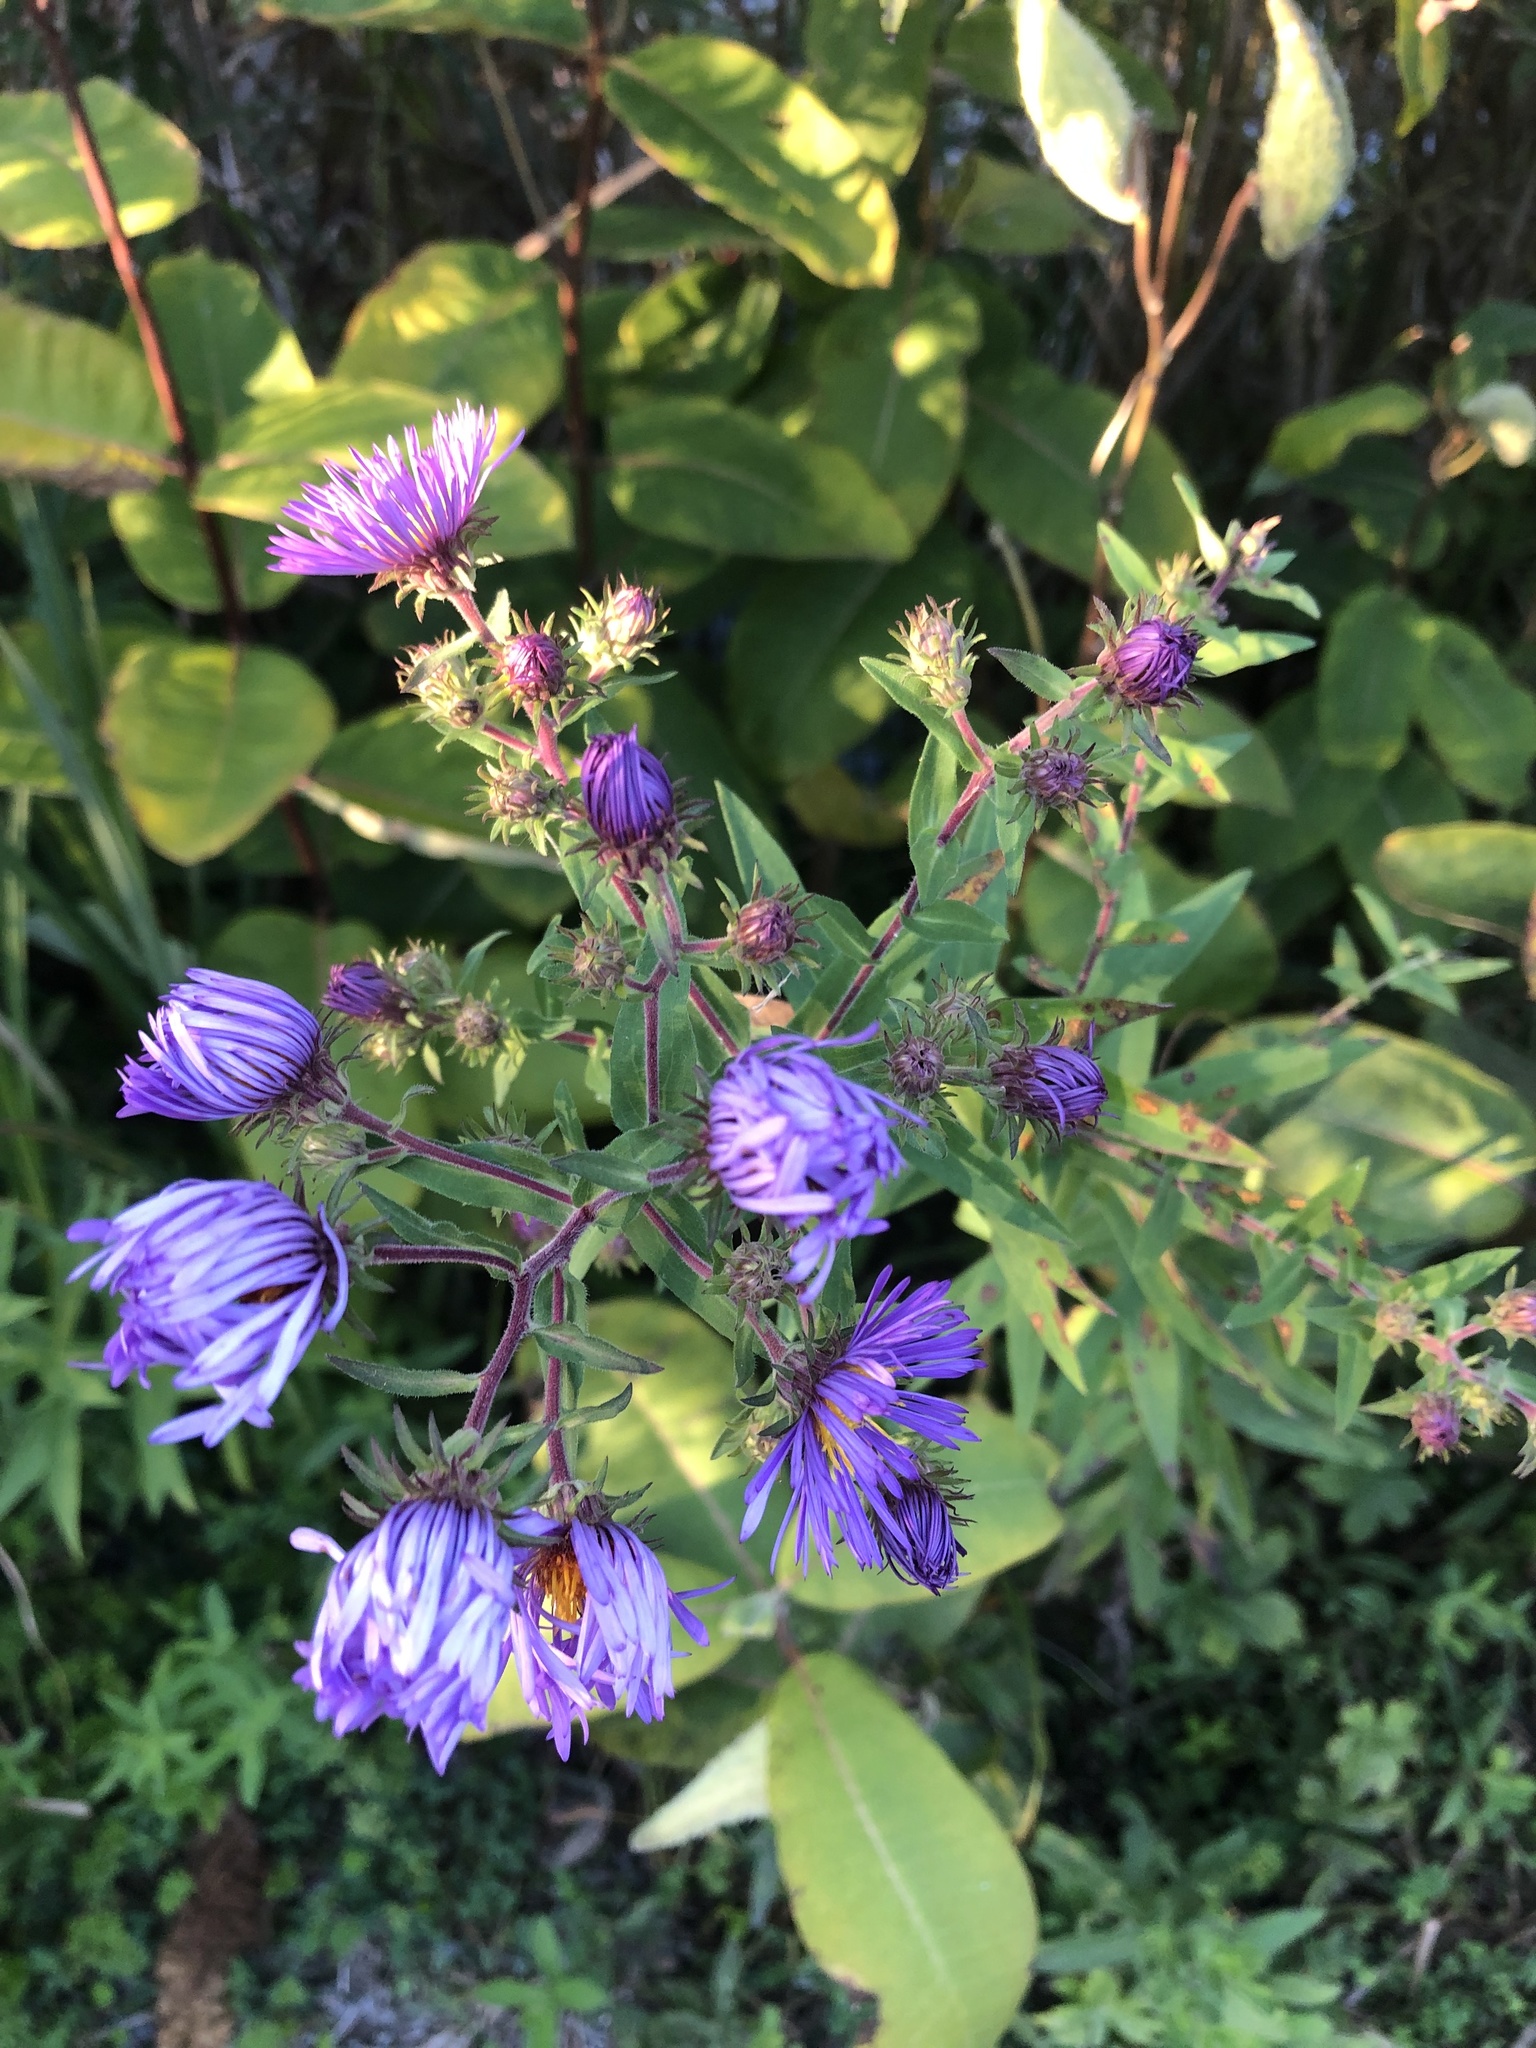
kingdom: Plantae
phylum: Tracheophyta
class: Magnoliopsida
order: Asterales
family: Asteraceae
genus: Symphyotrichum
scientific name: Symphyotrichum novae-angliae
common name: Michaelmas daisy
